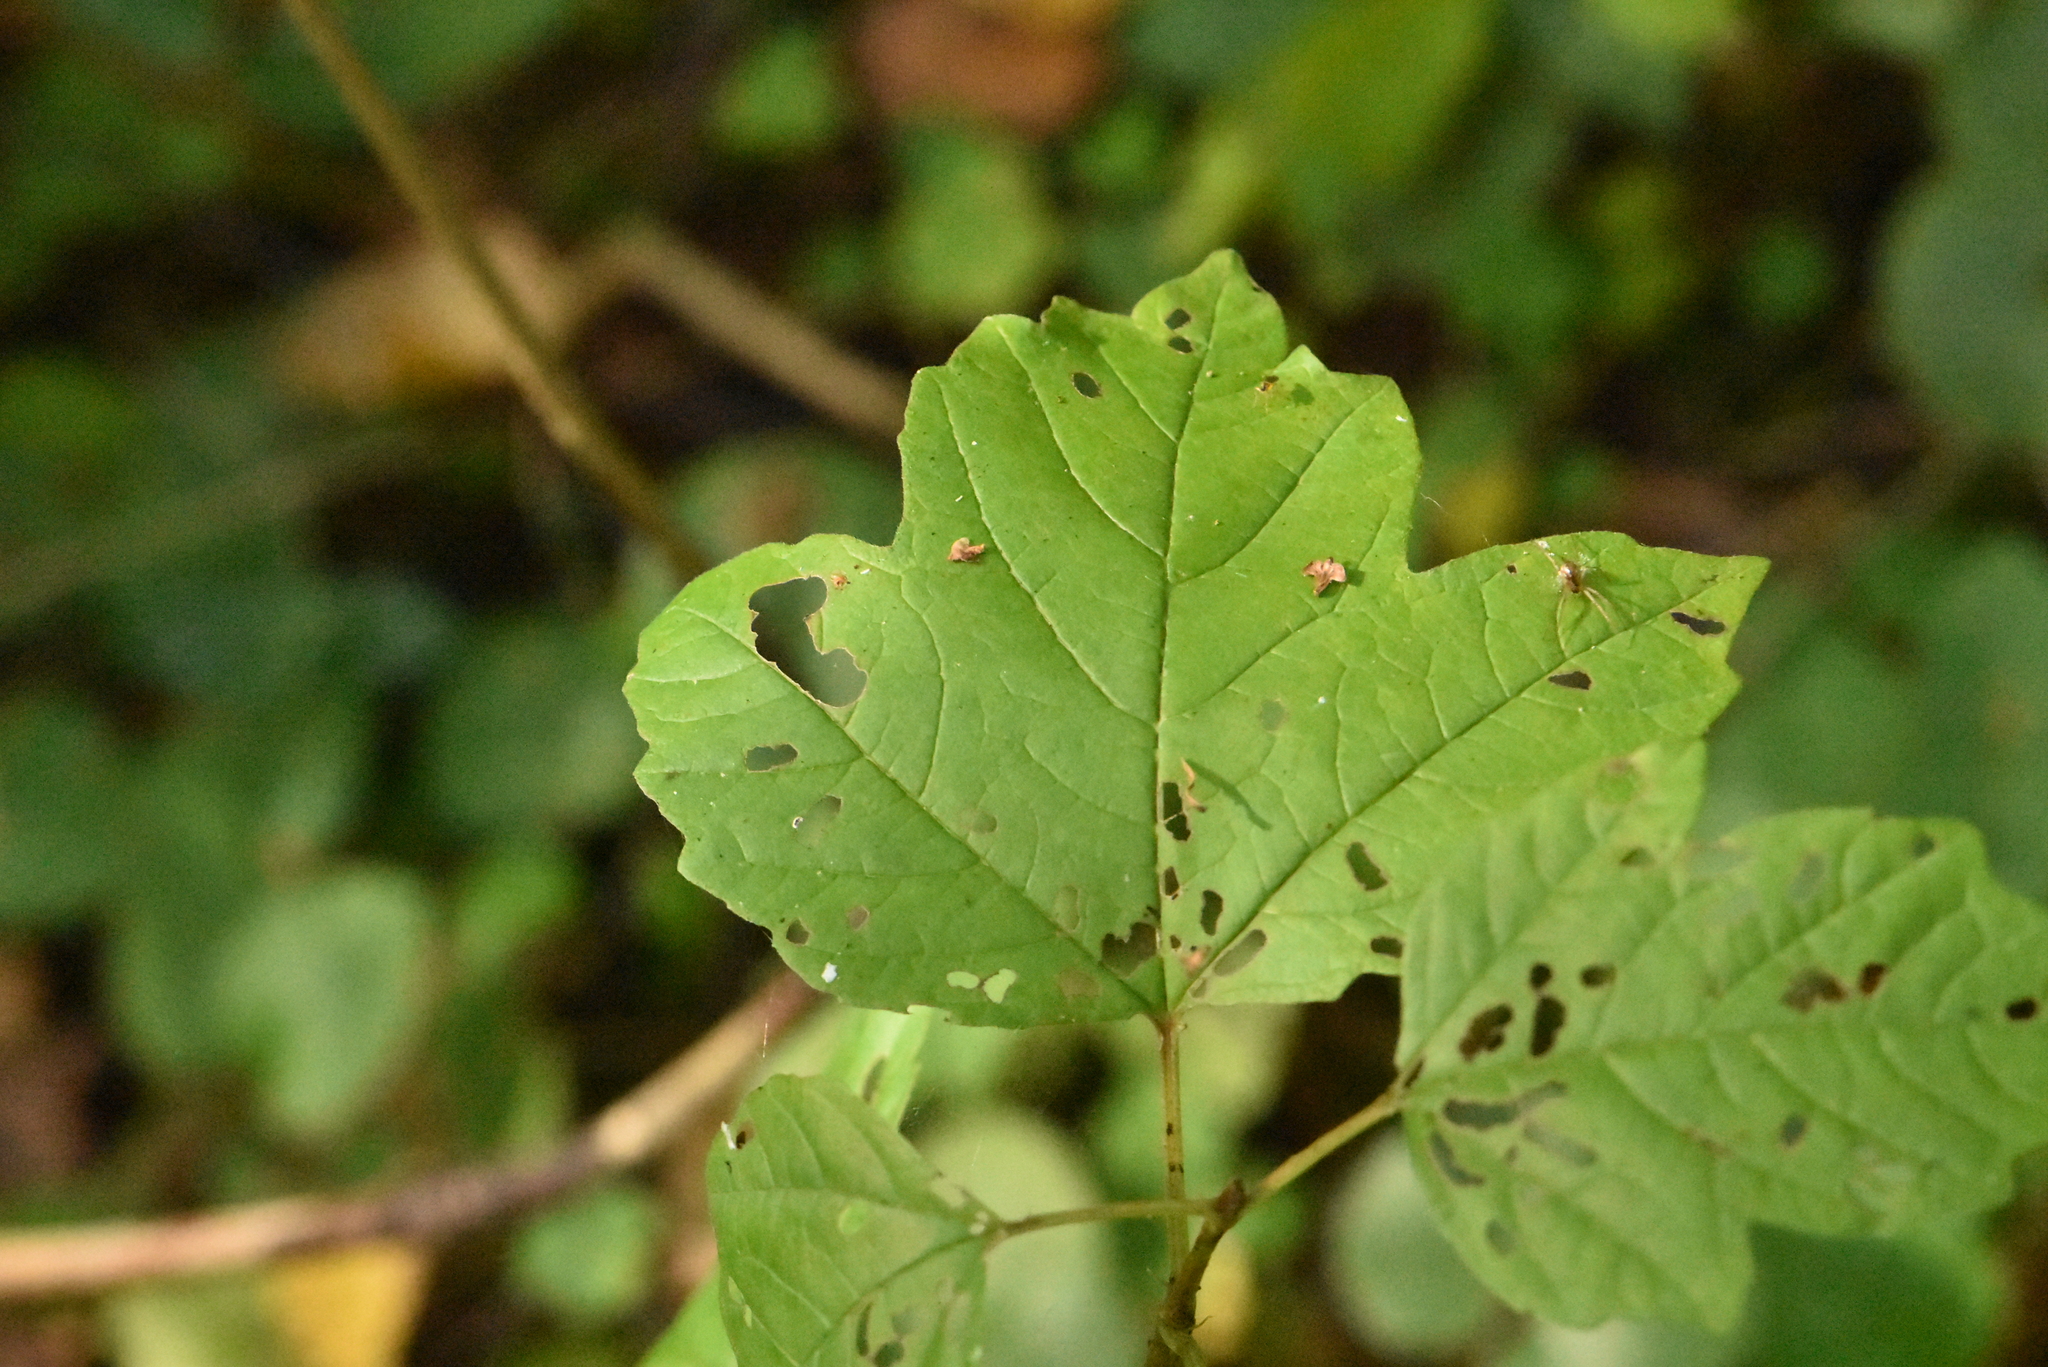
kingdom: Plantae
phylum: Tracheophyta
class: Magnoliopsida
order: Dipsacales
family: Viburnaceae
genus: Viburnum
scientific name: Viburnum opulus
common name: Guelder-rose
